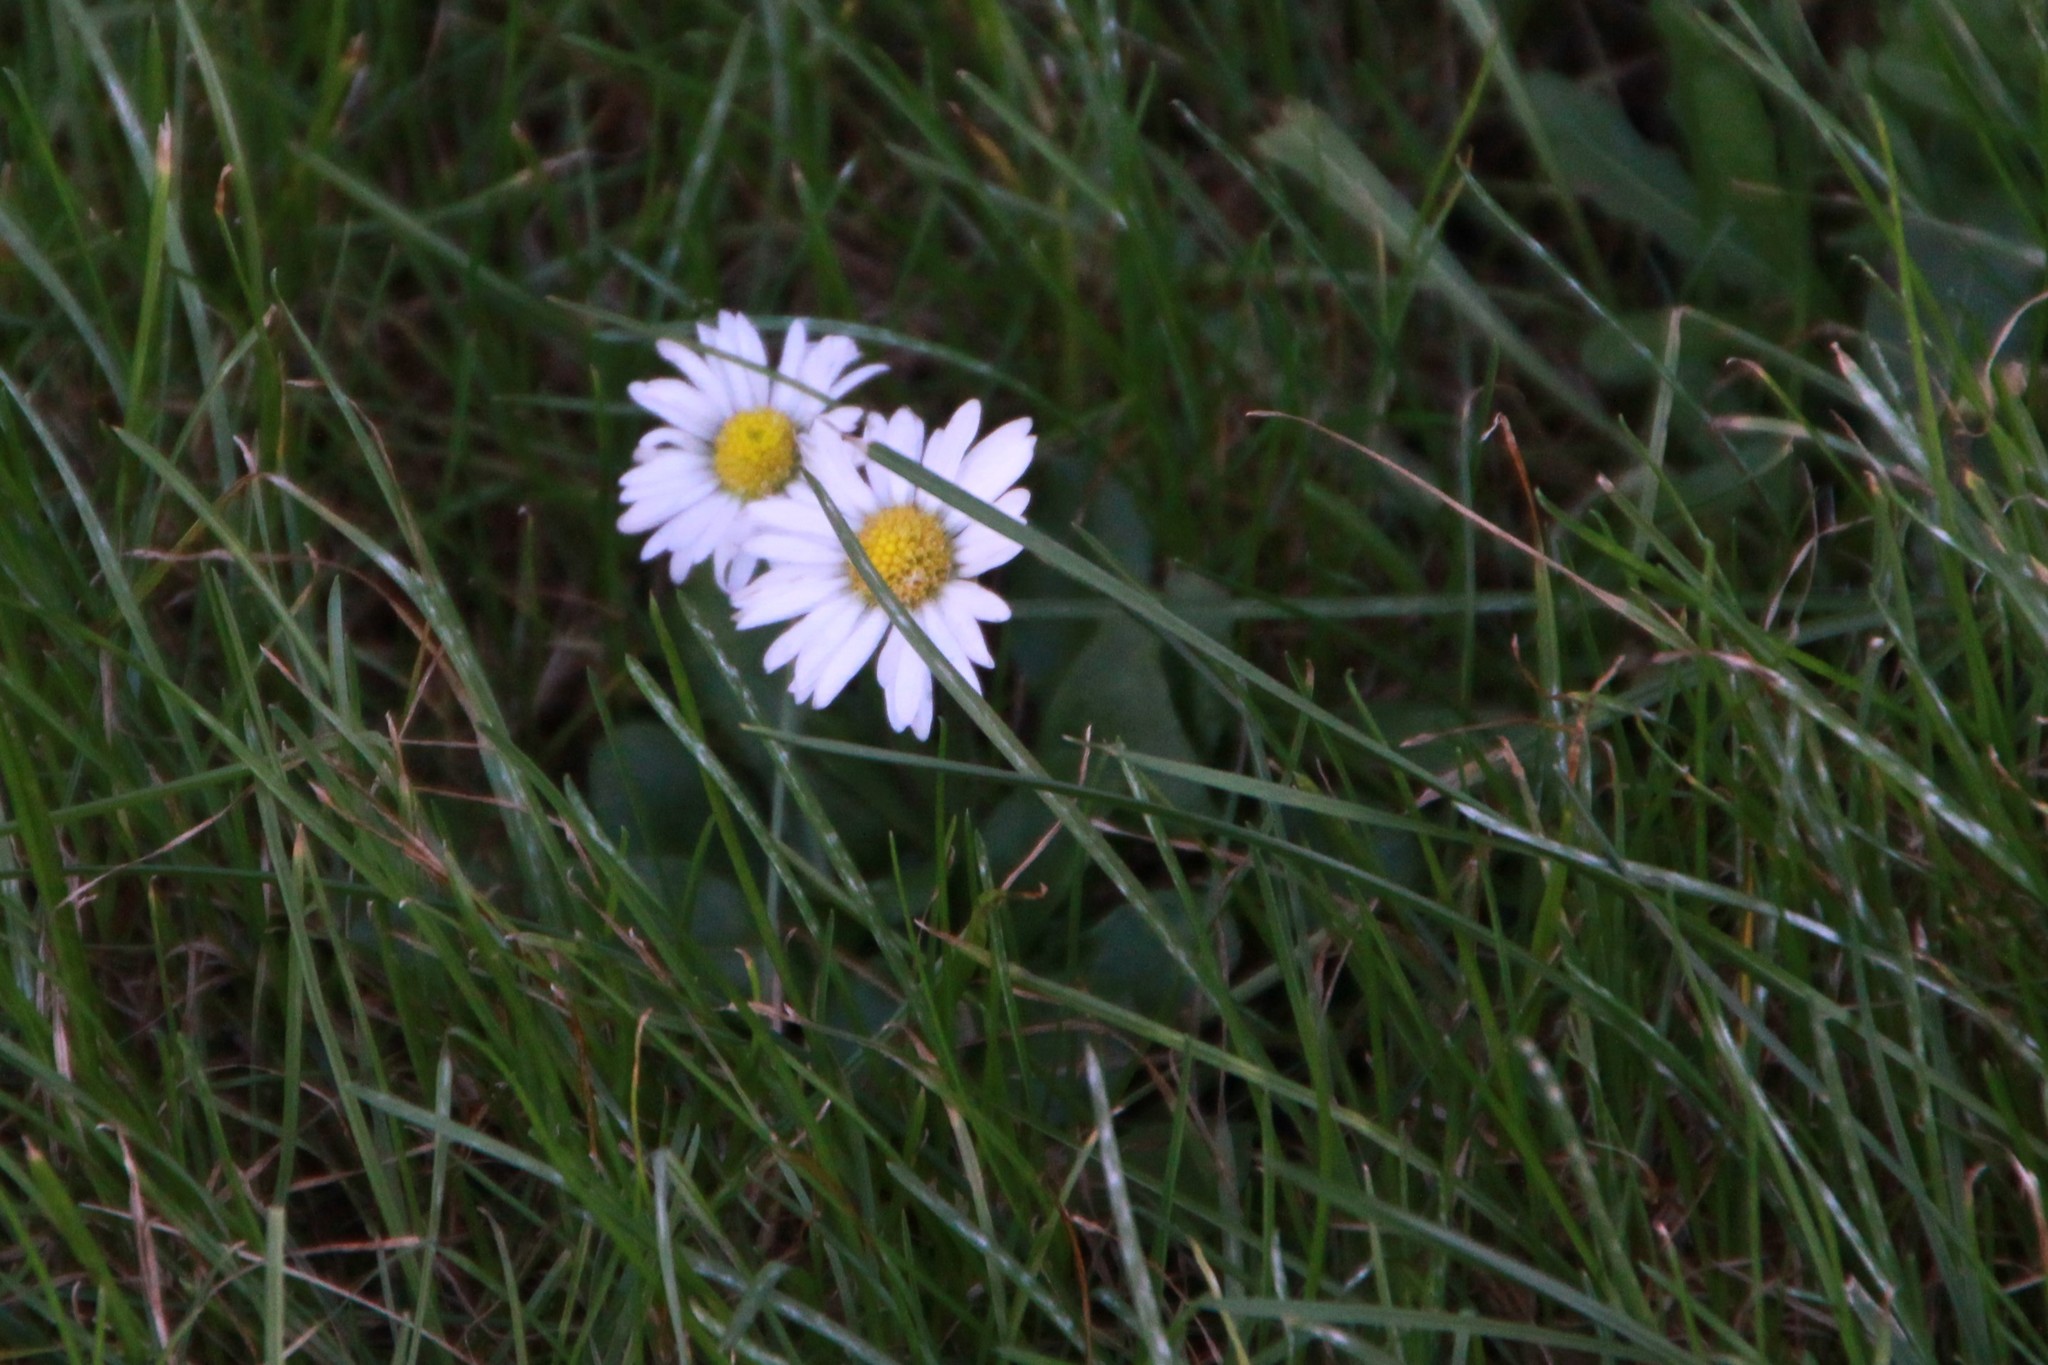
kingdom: Plantae
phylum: Tracheophyta
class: Magnoliopsida
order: Asterales
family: Asteraceae
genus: Bellis
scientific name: Bellis perennis
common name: Lawndaisy
